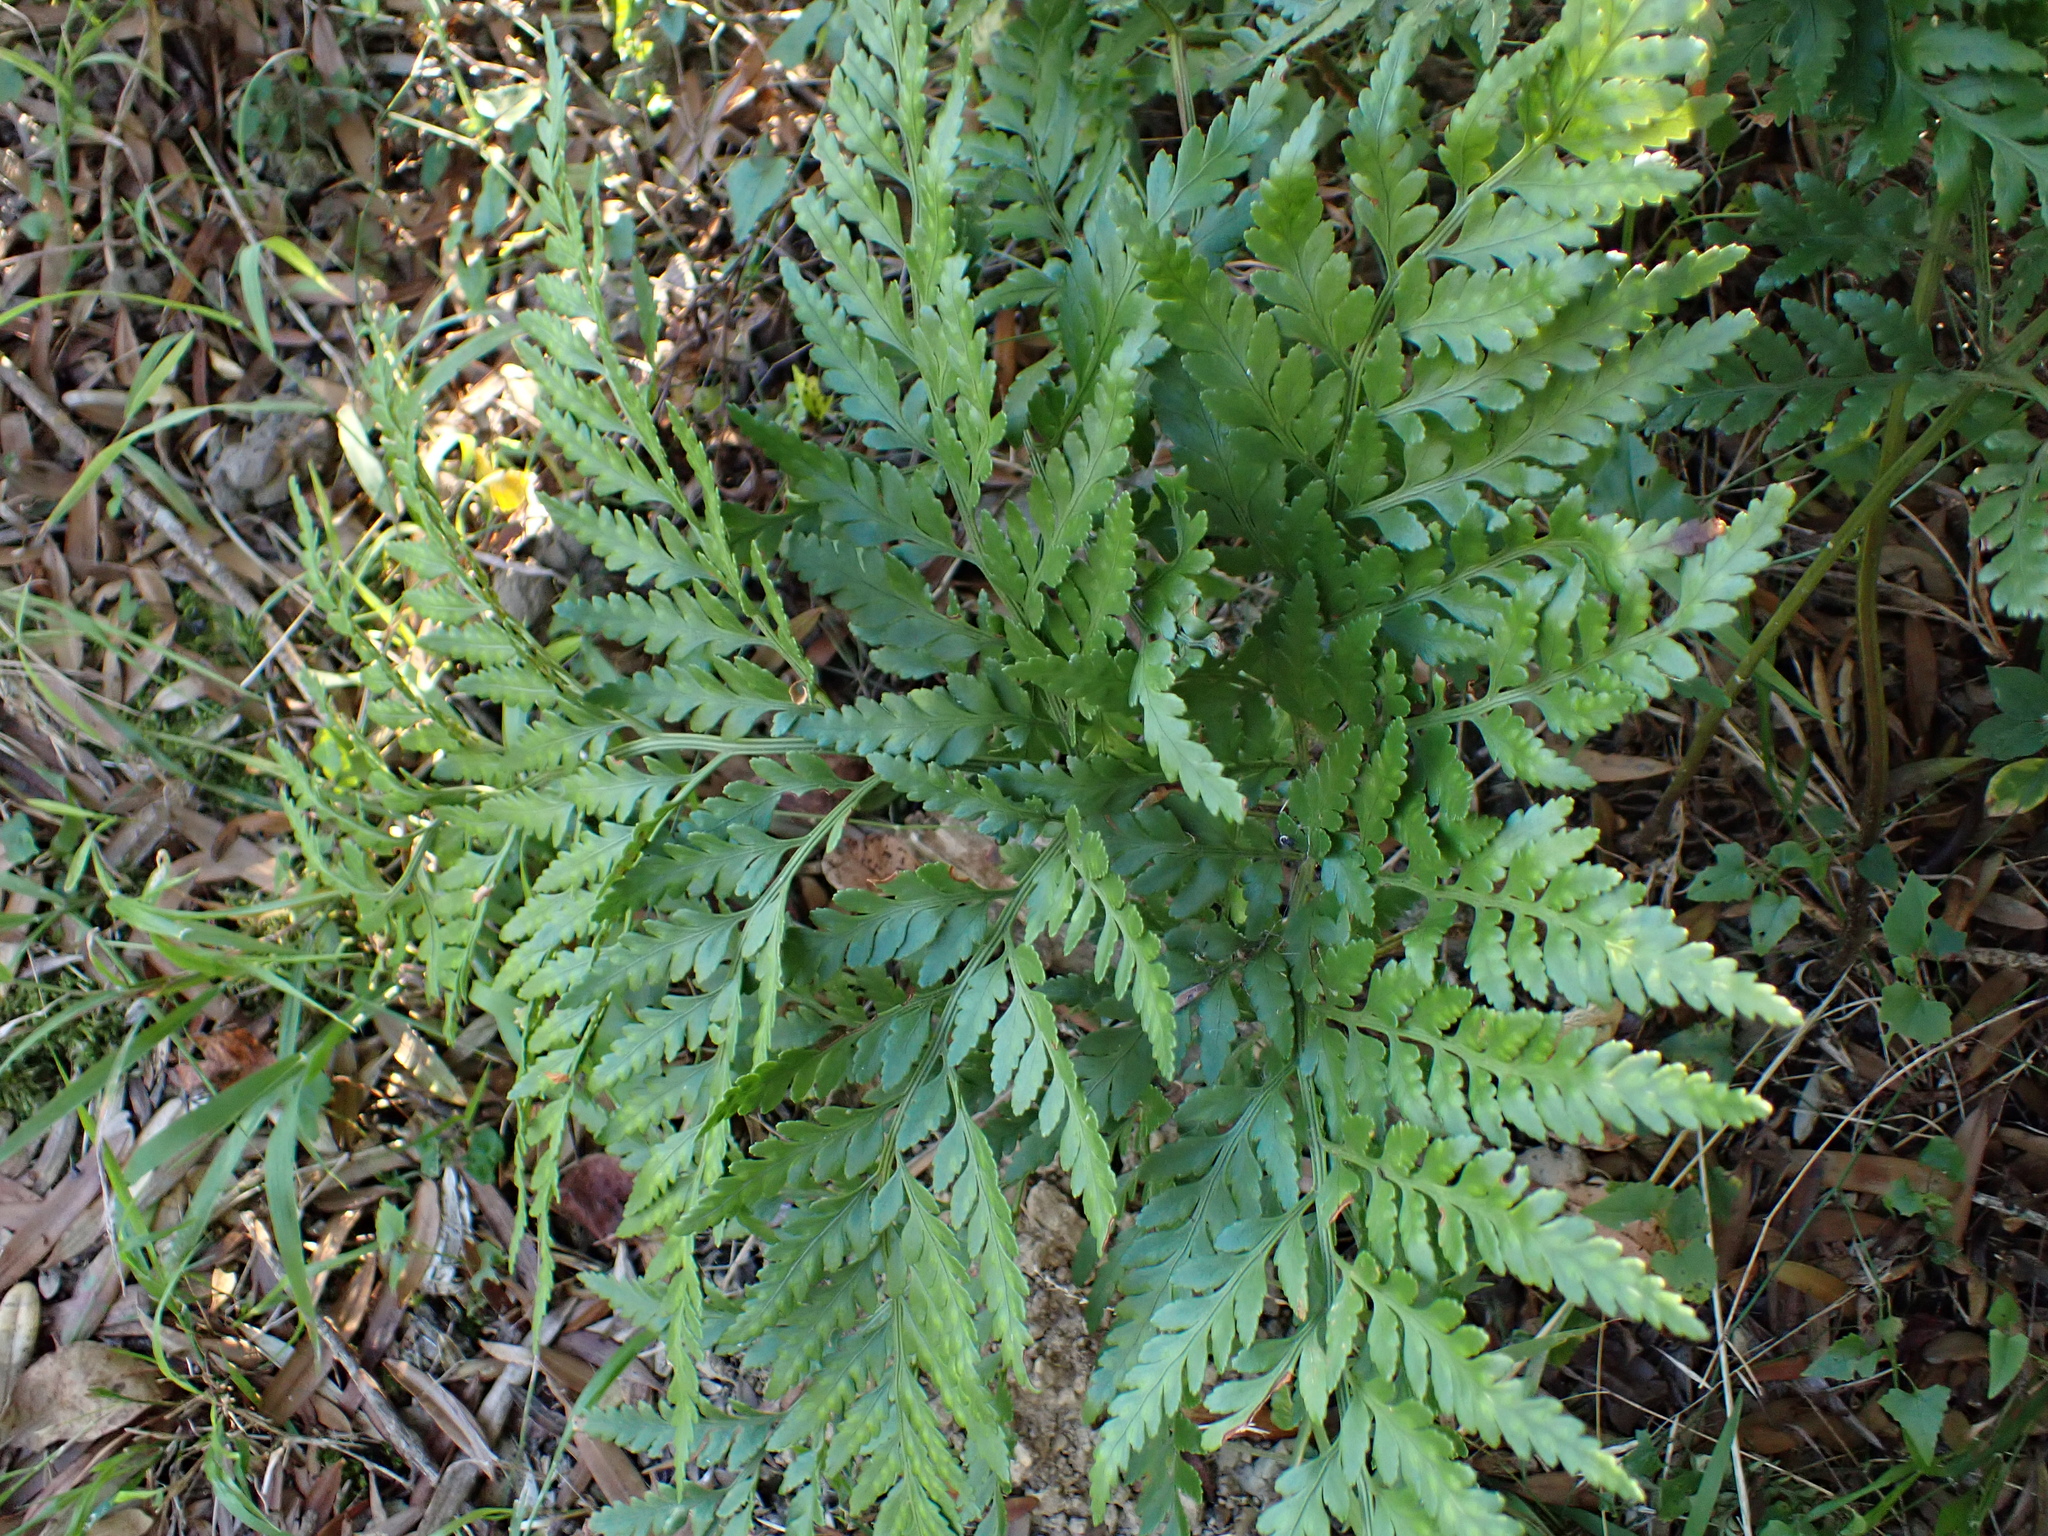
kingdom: Plantae
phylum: Tracheophyta
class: Polypodiopsida
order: Polypodiales
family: Dryopteridaceae
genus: Rumohra
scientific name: Rumohra adiantiformis
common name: Leather fern
